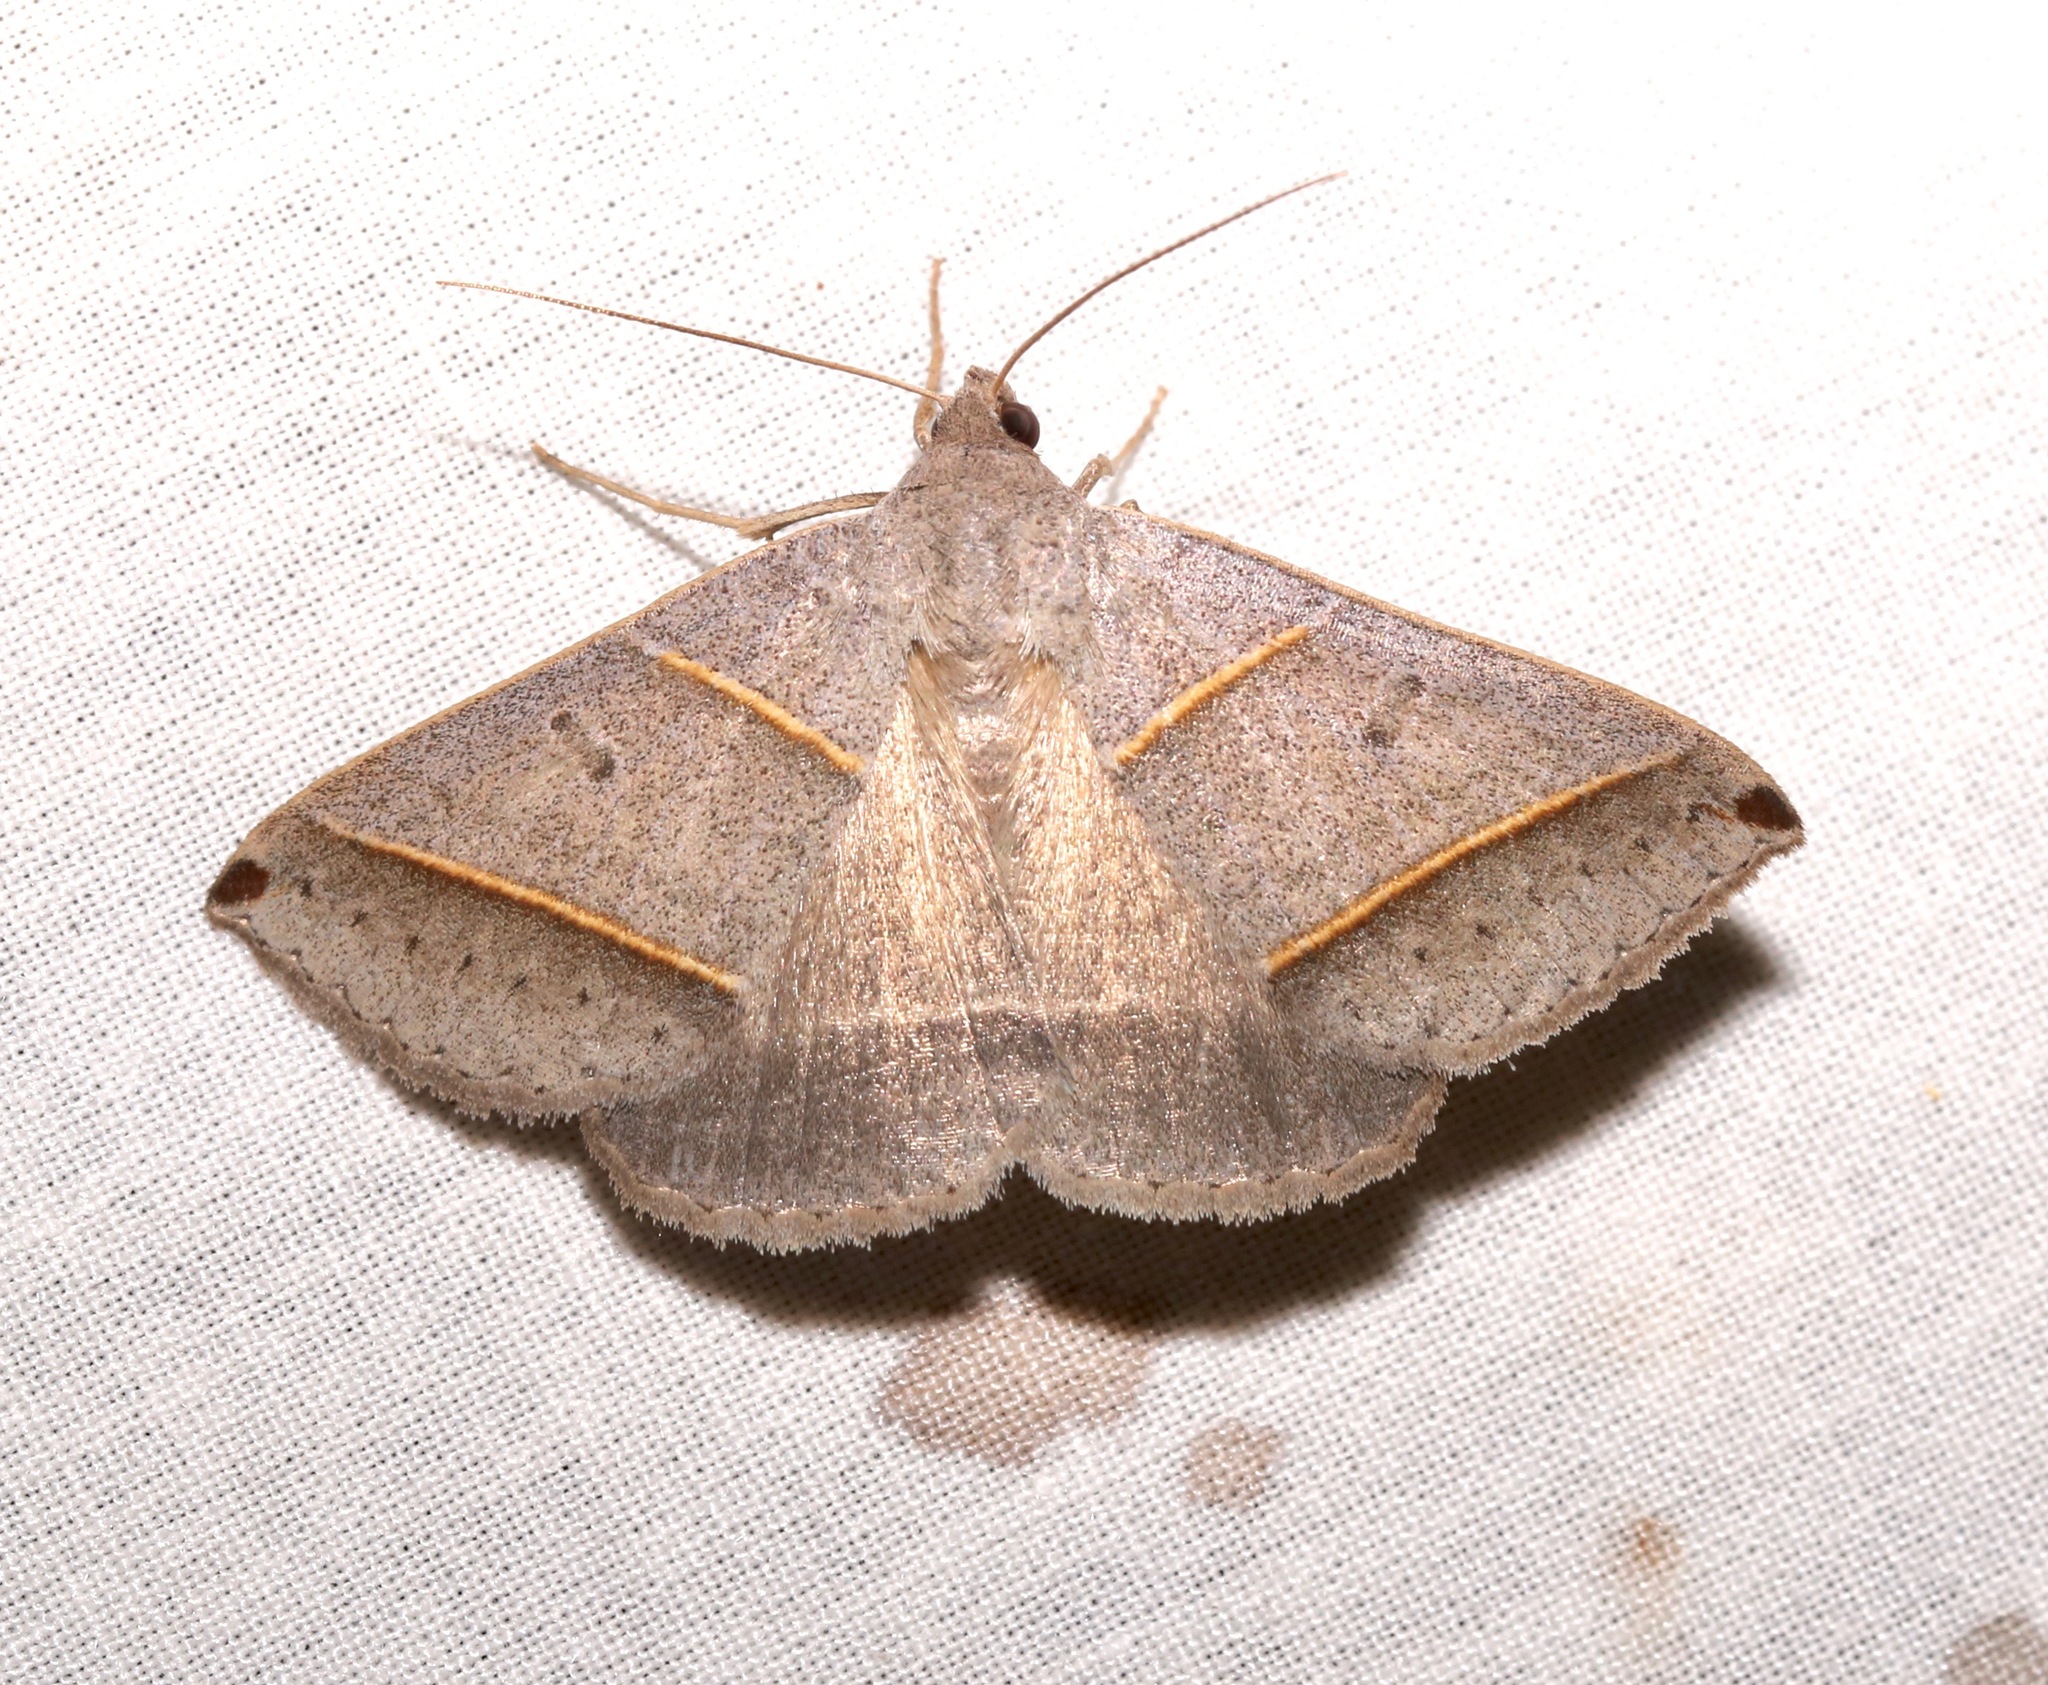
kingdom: Animalia
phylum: Arthropoda
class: Insecta
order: Lepidoptera
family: Erebidae
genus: Ptichodis
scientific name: Ptichodis vinculum
